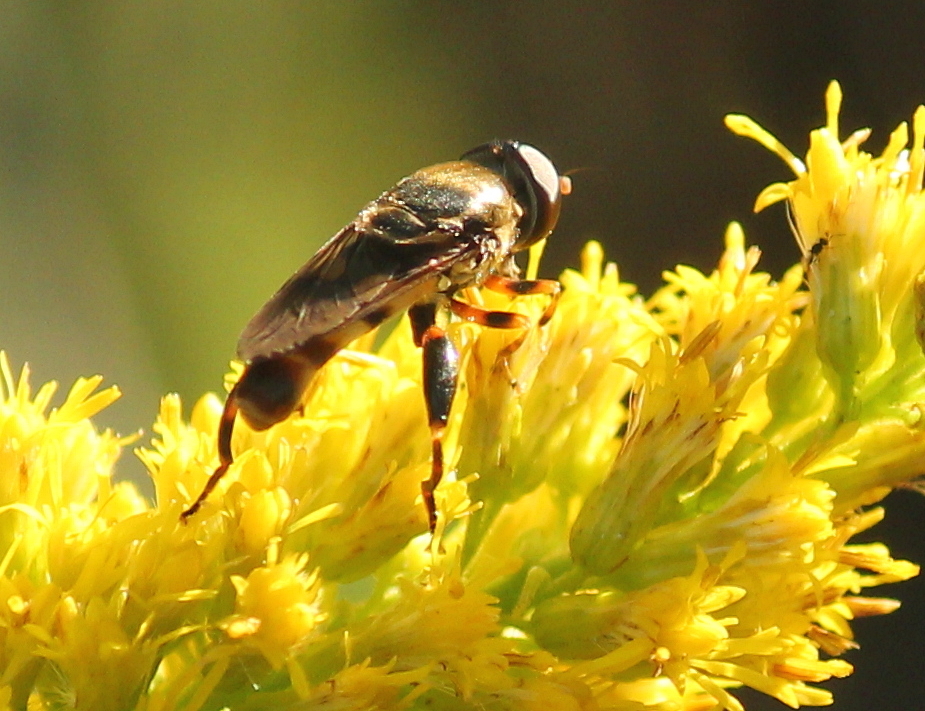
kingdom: Animalia
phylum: Arthropoda
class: Insecta
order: Diptera
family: Syrphidae
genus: Tropidia
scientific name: Tropidia albistylum
